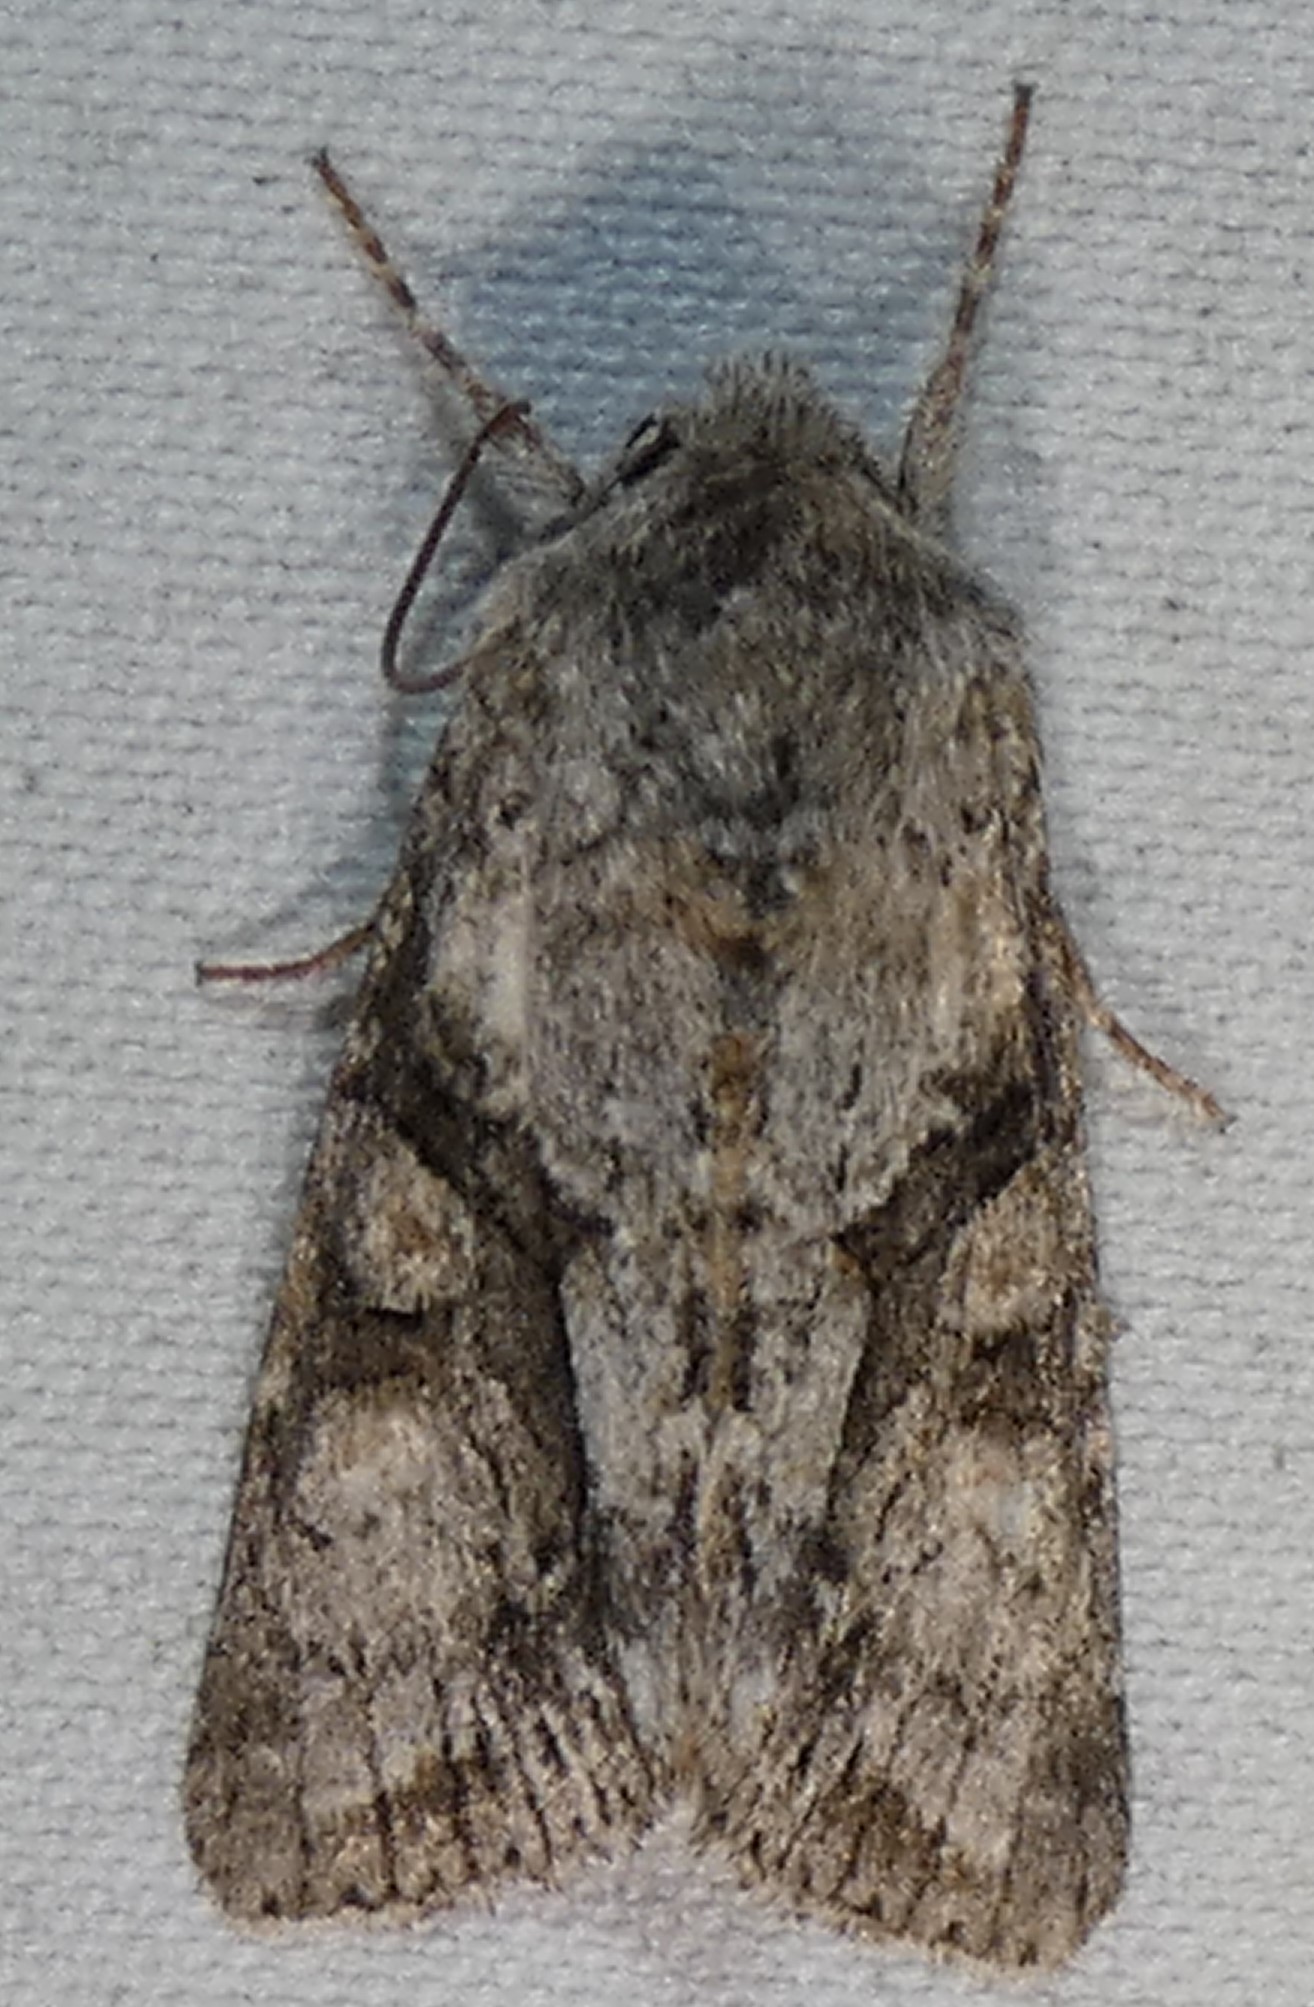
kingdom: Animalia
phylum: Arthropoda
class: Insecta
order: Lepidoptera
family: Noctuidae
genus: Achatia
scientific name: Achatia distincta
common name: Distinct quaker
